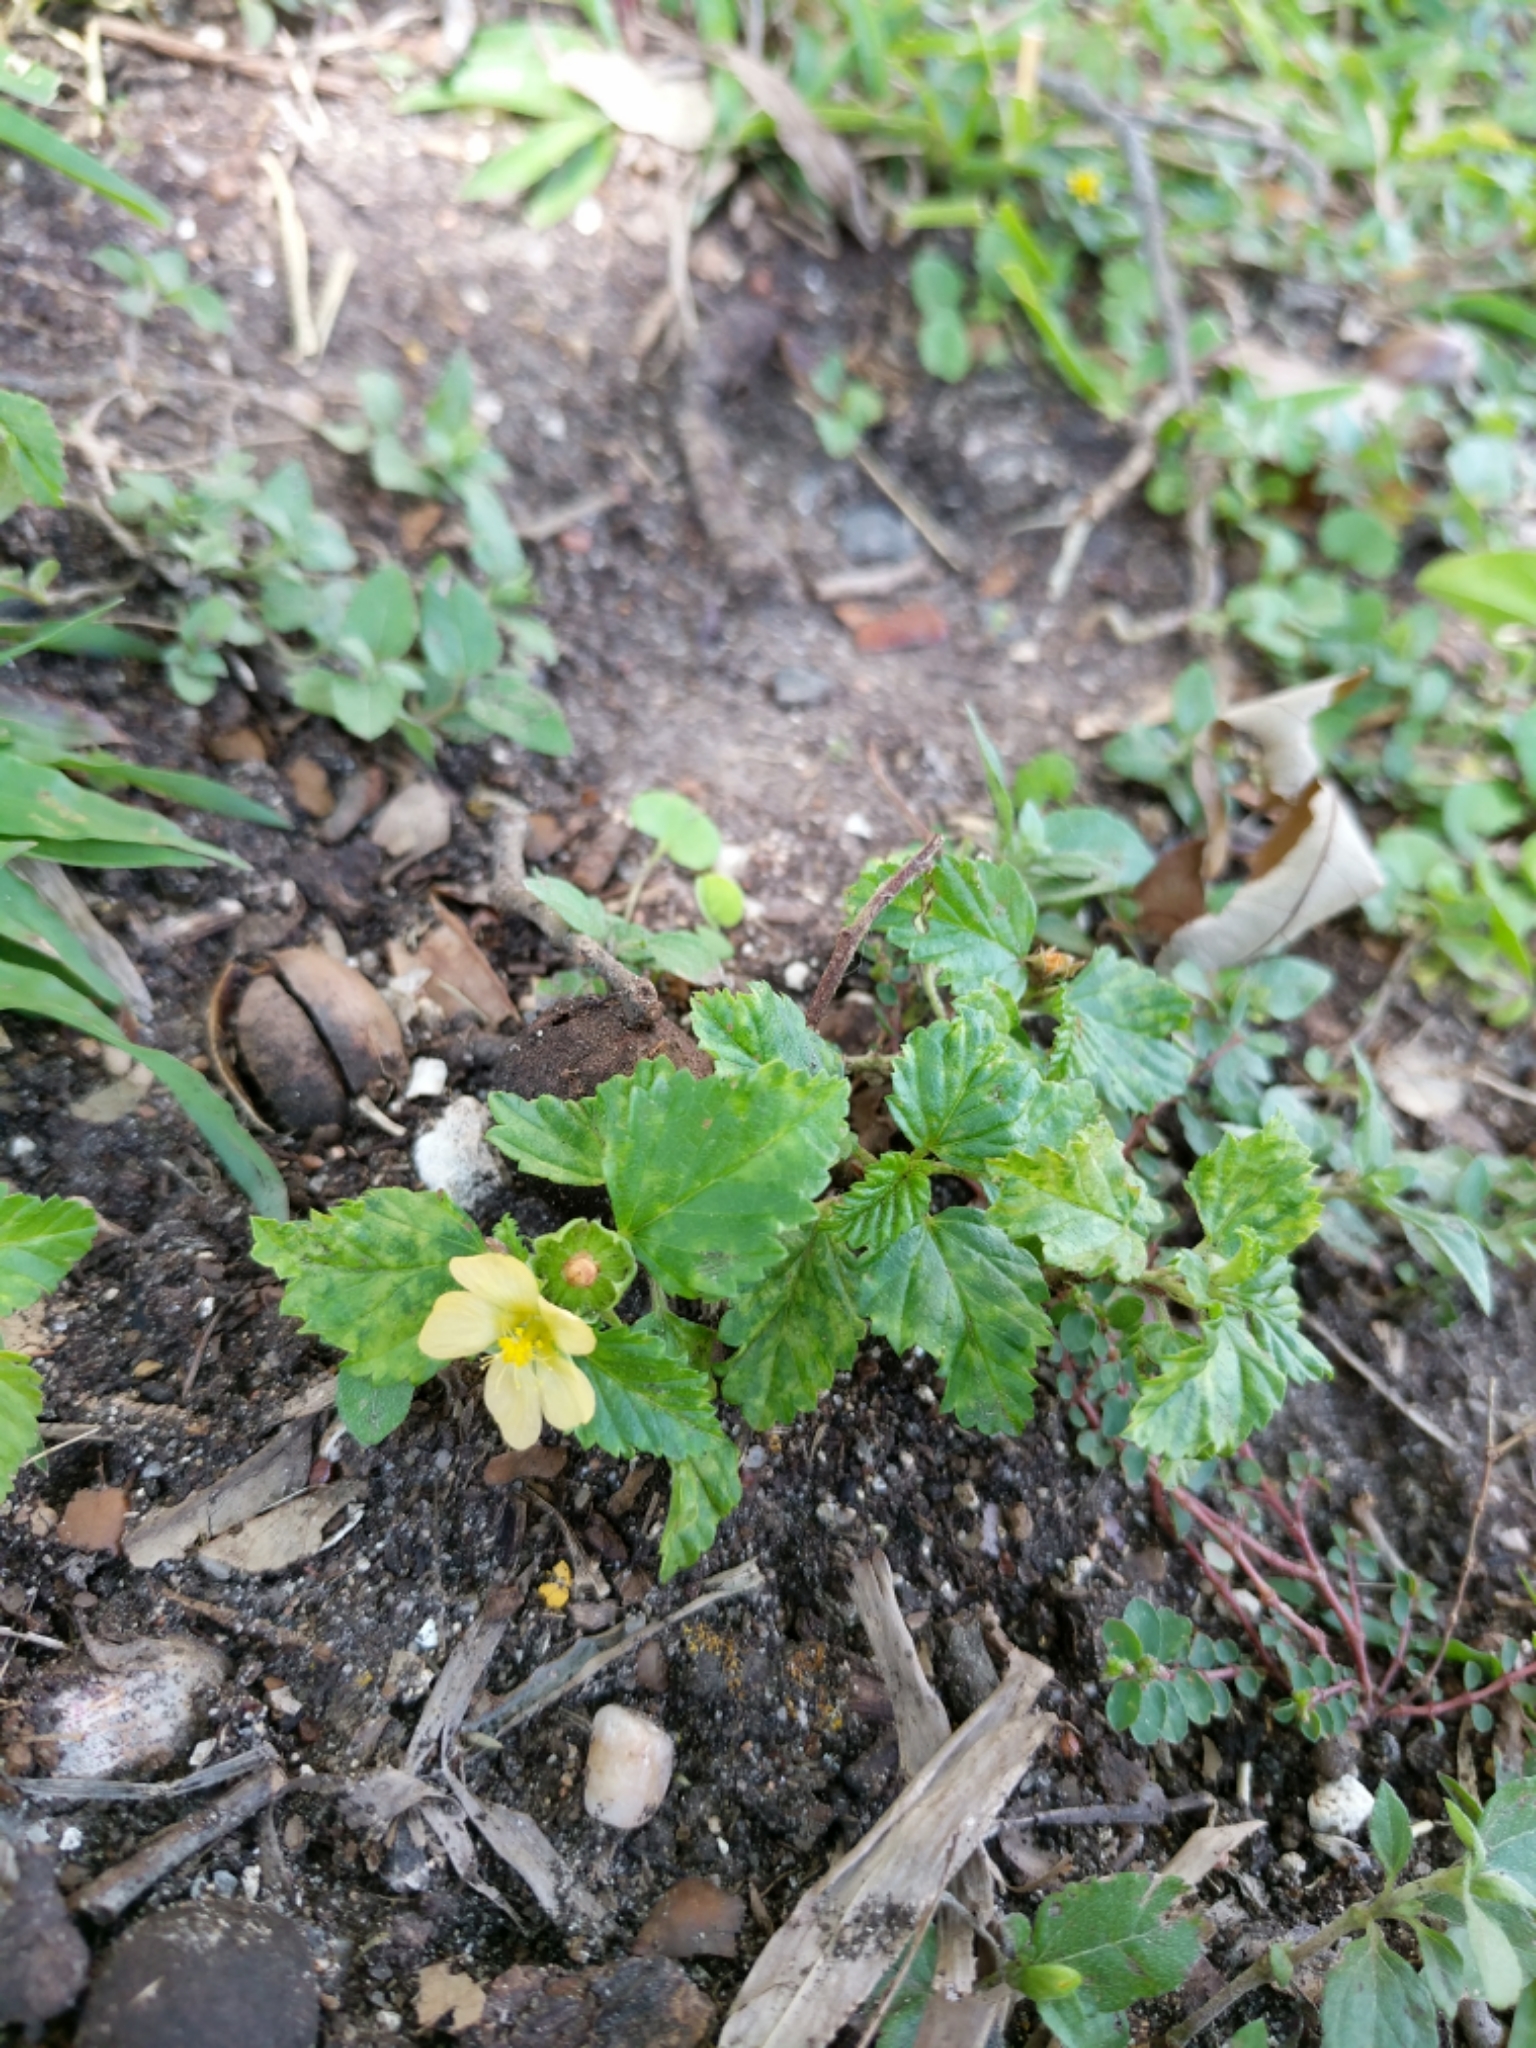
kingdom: Plantae
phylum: Tracheophyta
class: Magnoliopsida
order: Malvales
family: Malvaceae
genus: Malvastrum
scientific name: Malvastrum coromandelianum
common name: Threelobe false mallow
